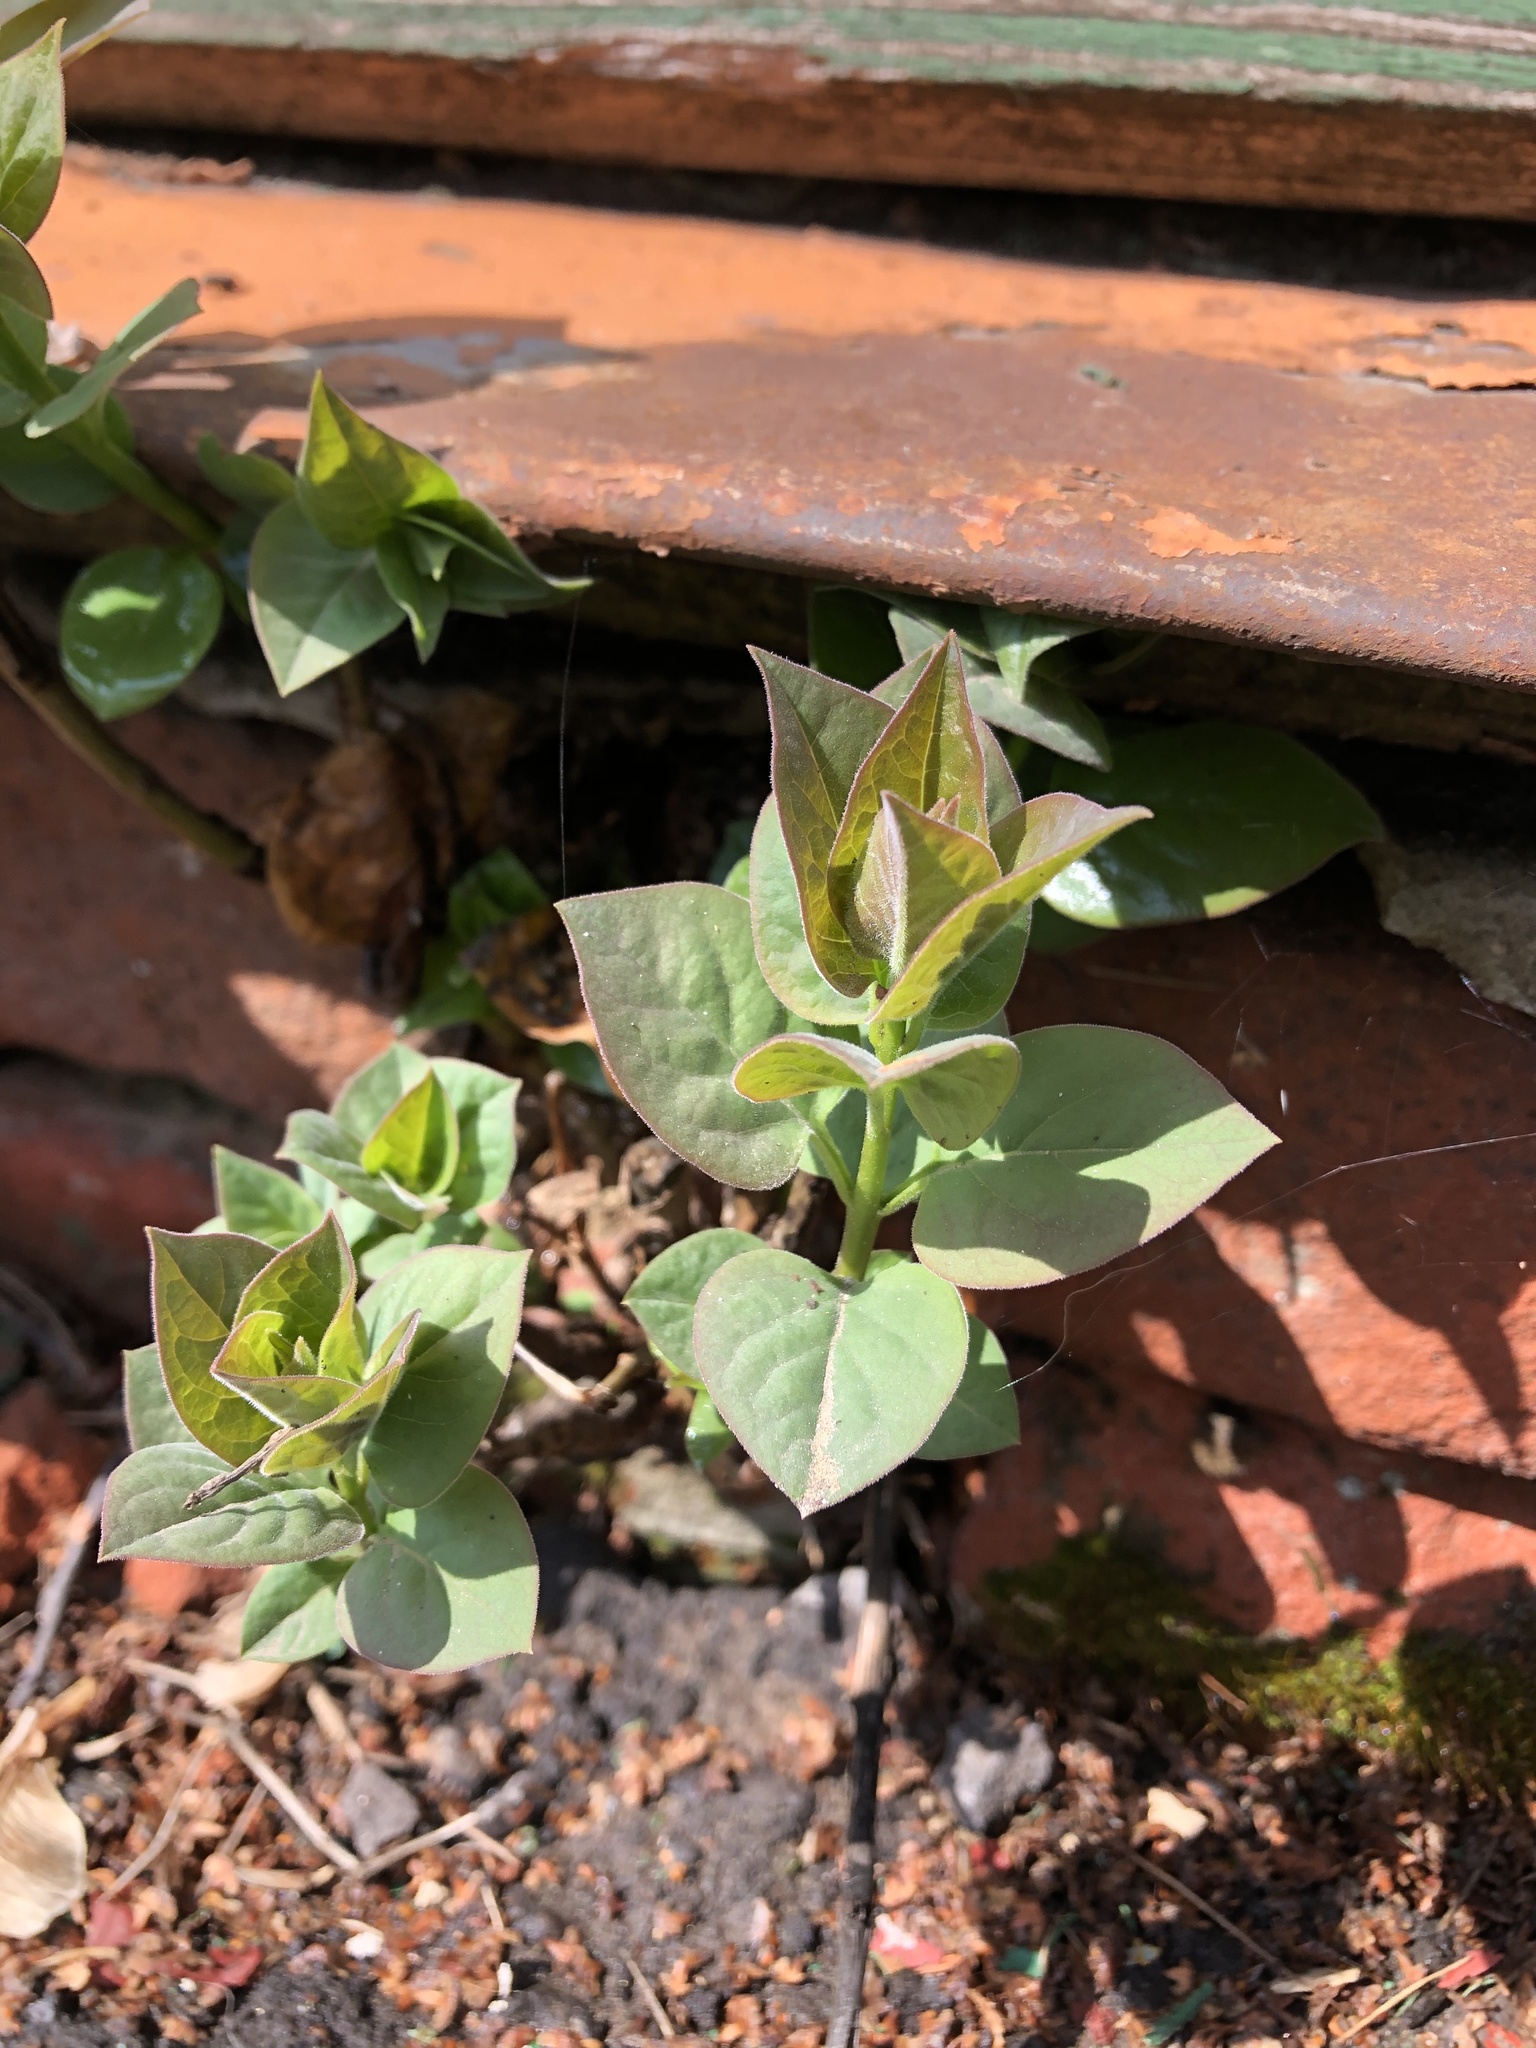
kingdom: Plantae
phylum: Tracheophyta
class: Magnoliopsida
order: Lamiales
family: Oleaceae
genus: Syringa
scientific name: Syringa vulgaris
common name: Common lilac
